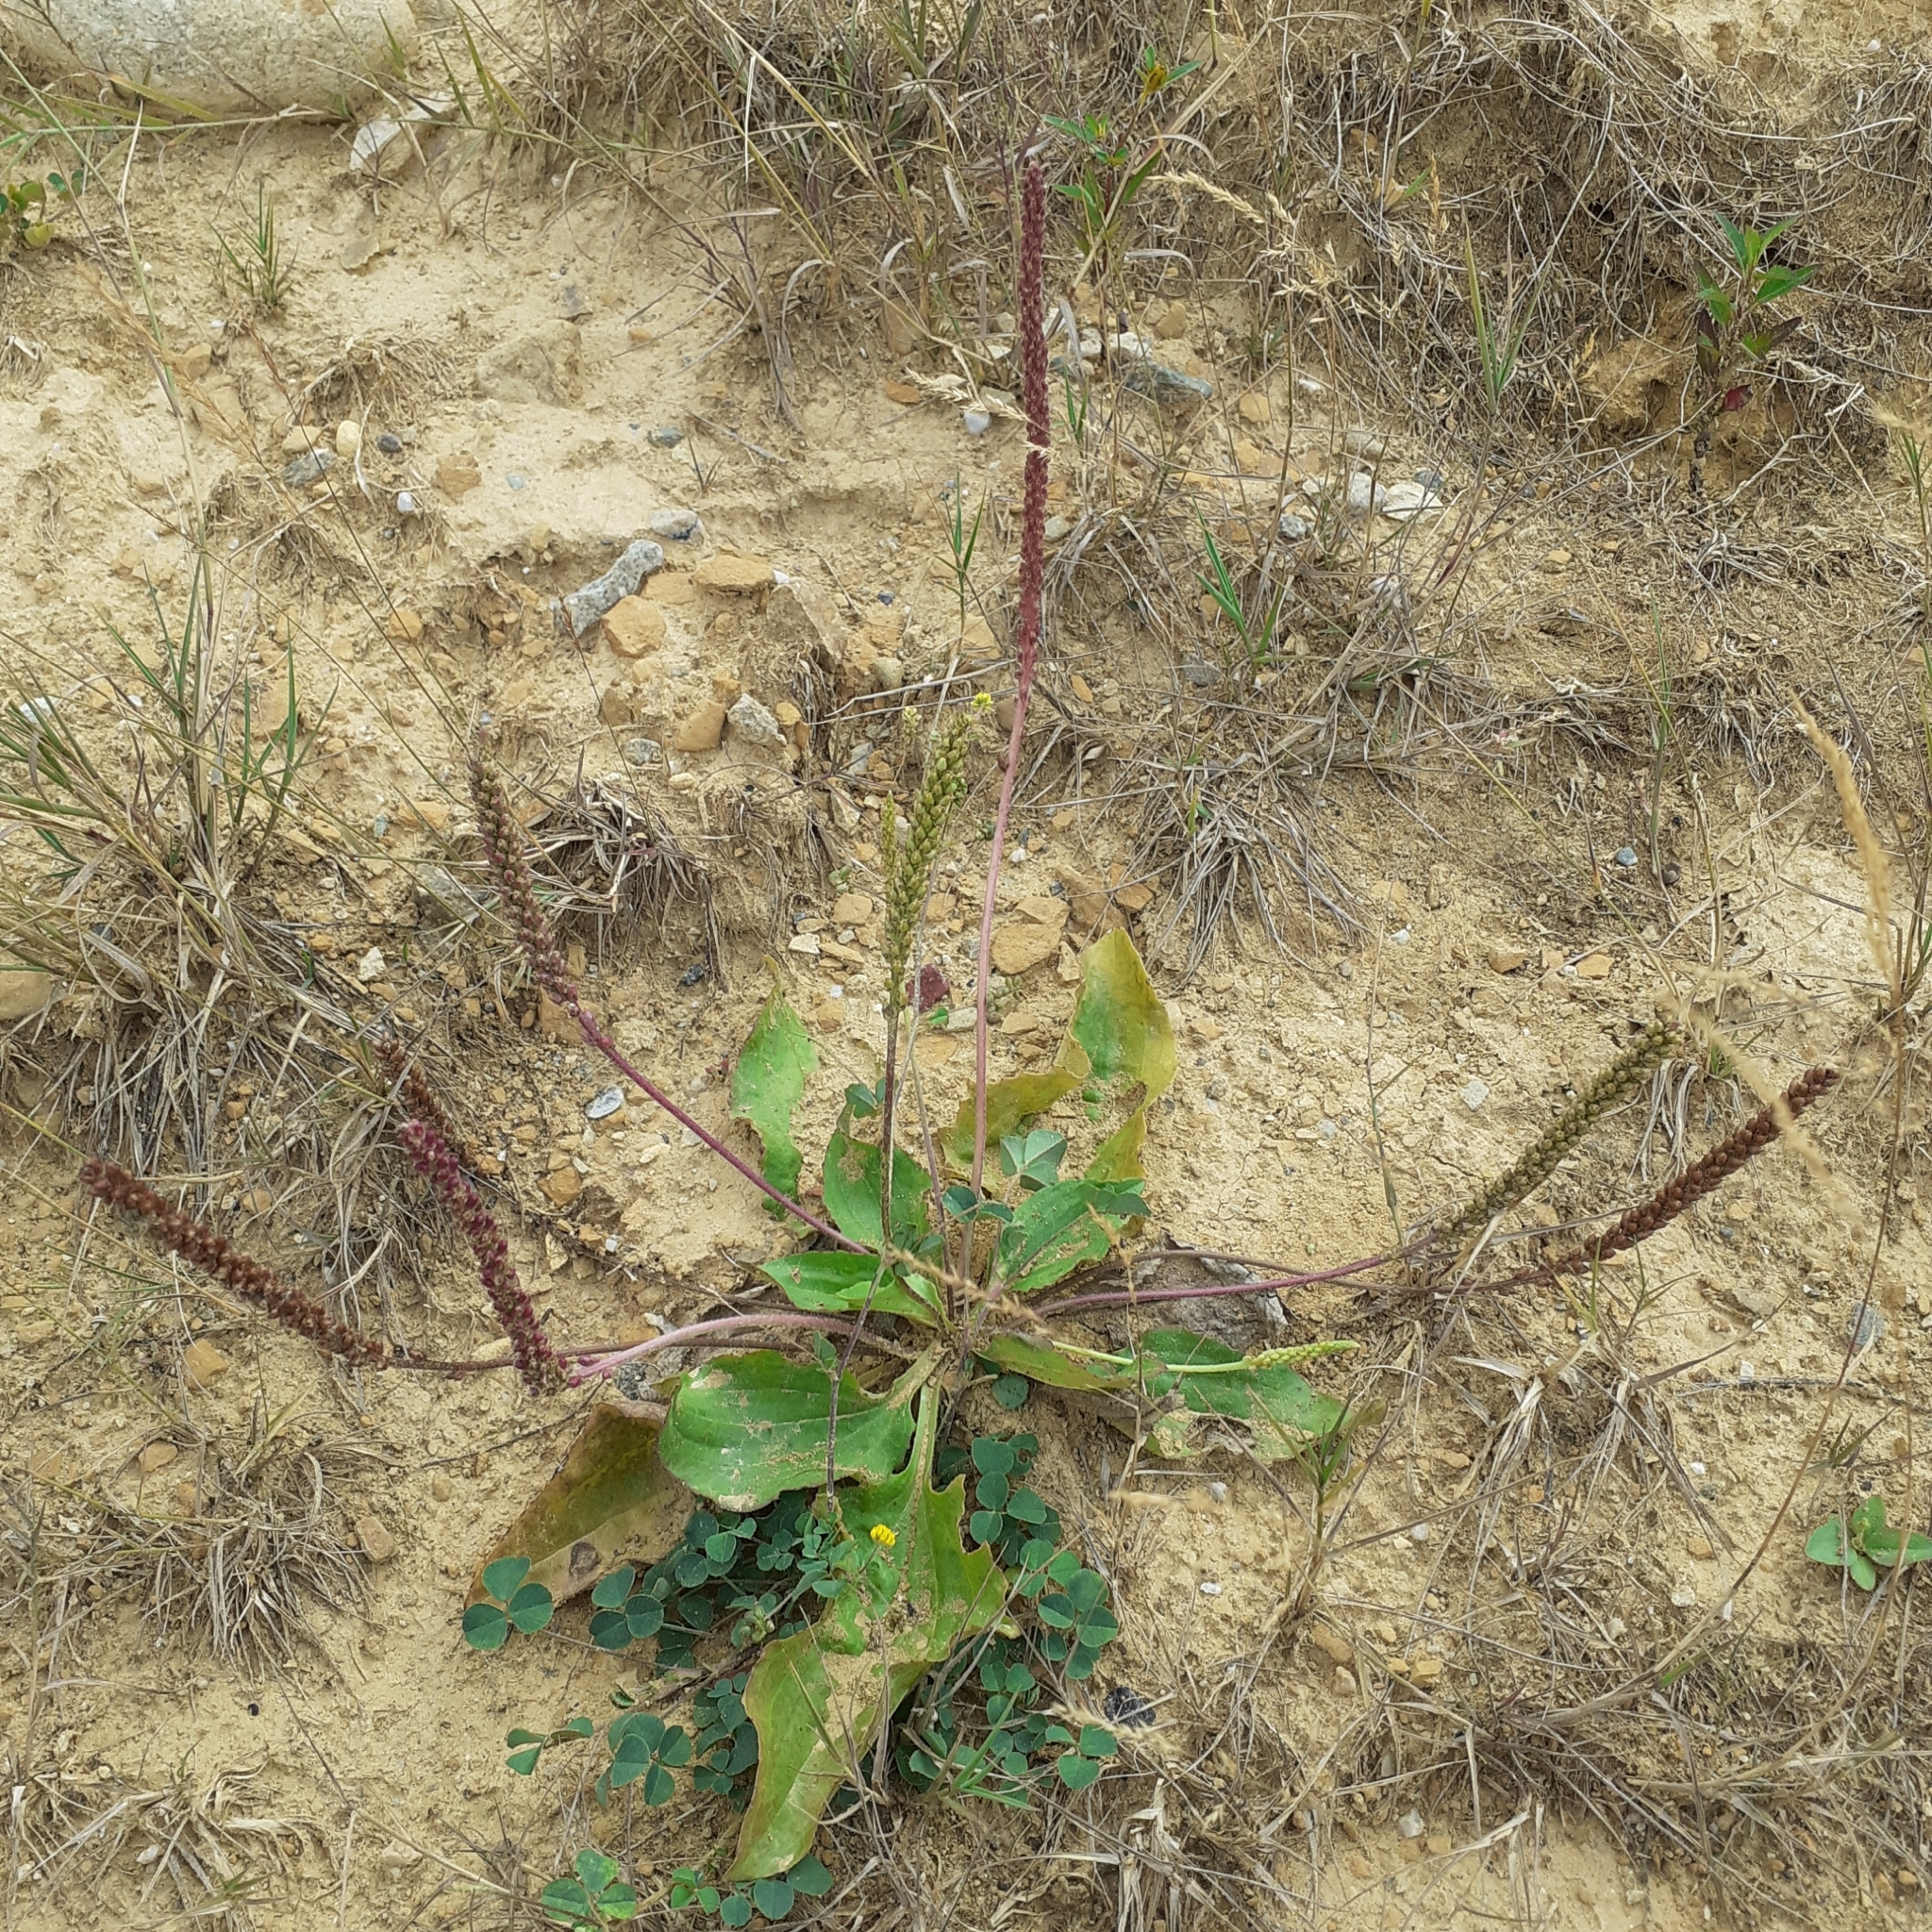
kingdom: Plantae
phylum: Tracheophyta
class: Magnoliopsida
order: Lamiales
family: Plantaginaceae
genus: Plantago
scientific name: Plantago major
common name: Common plantain
